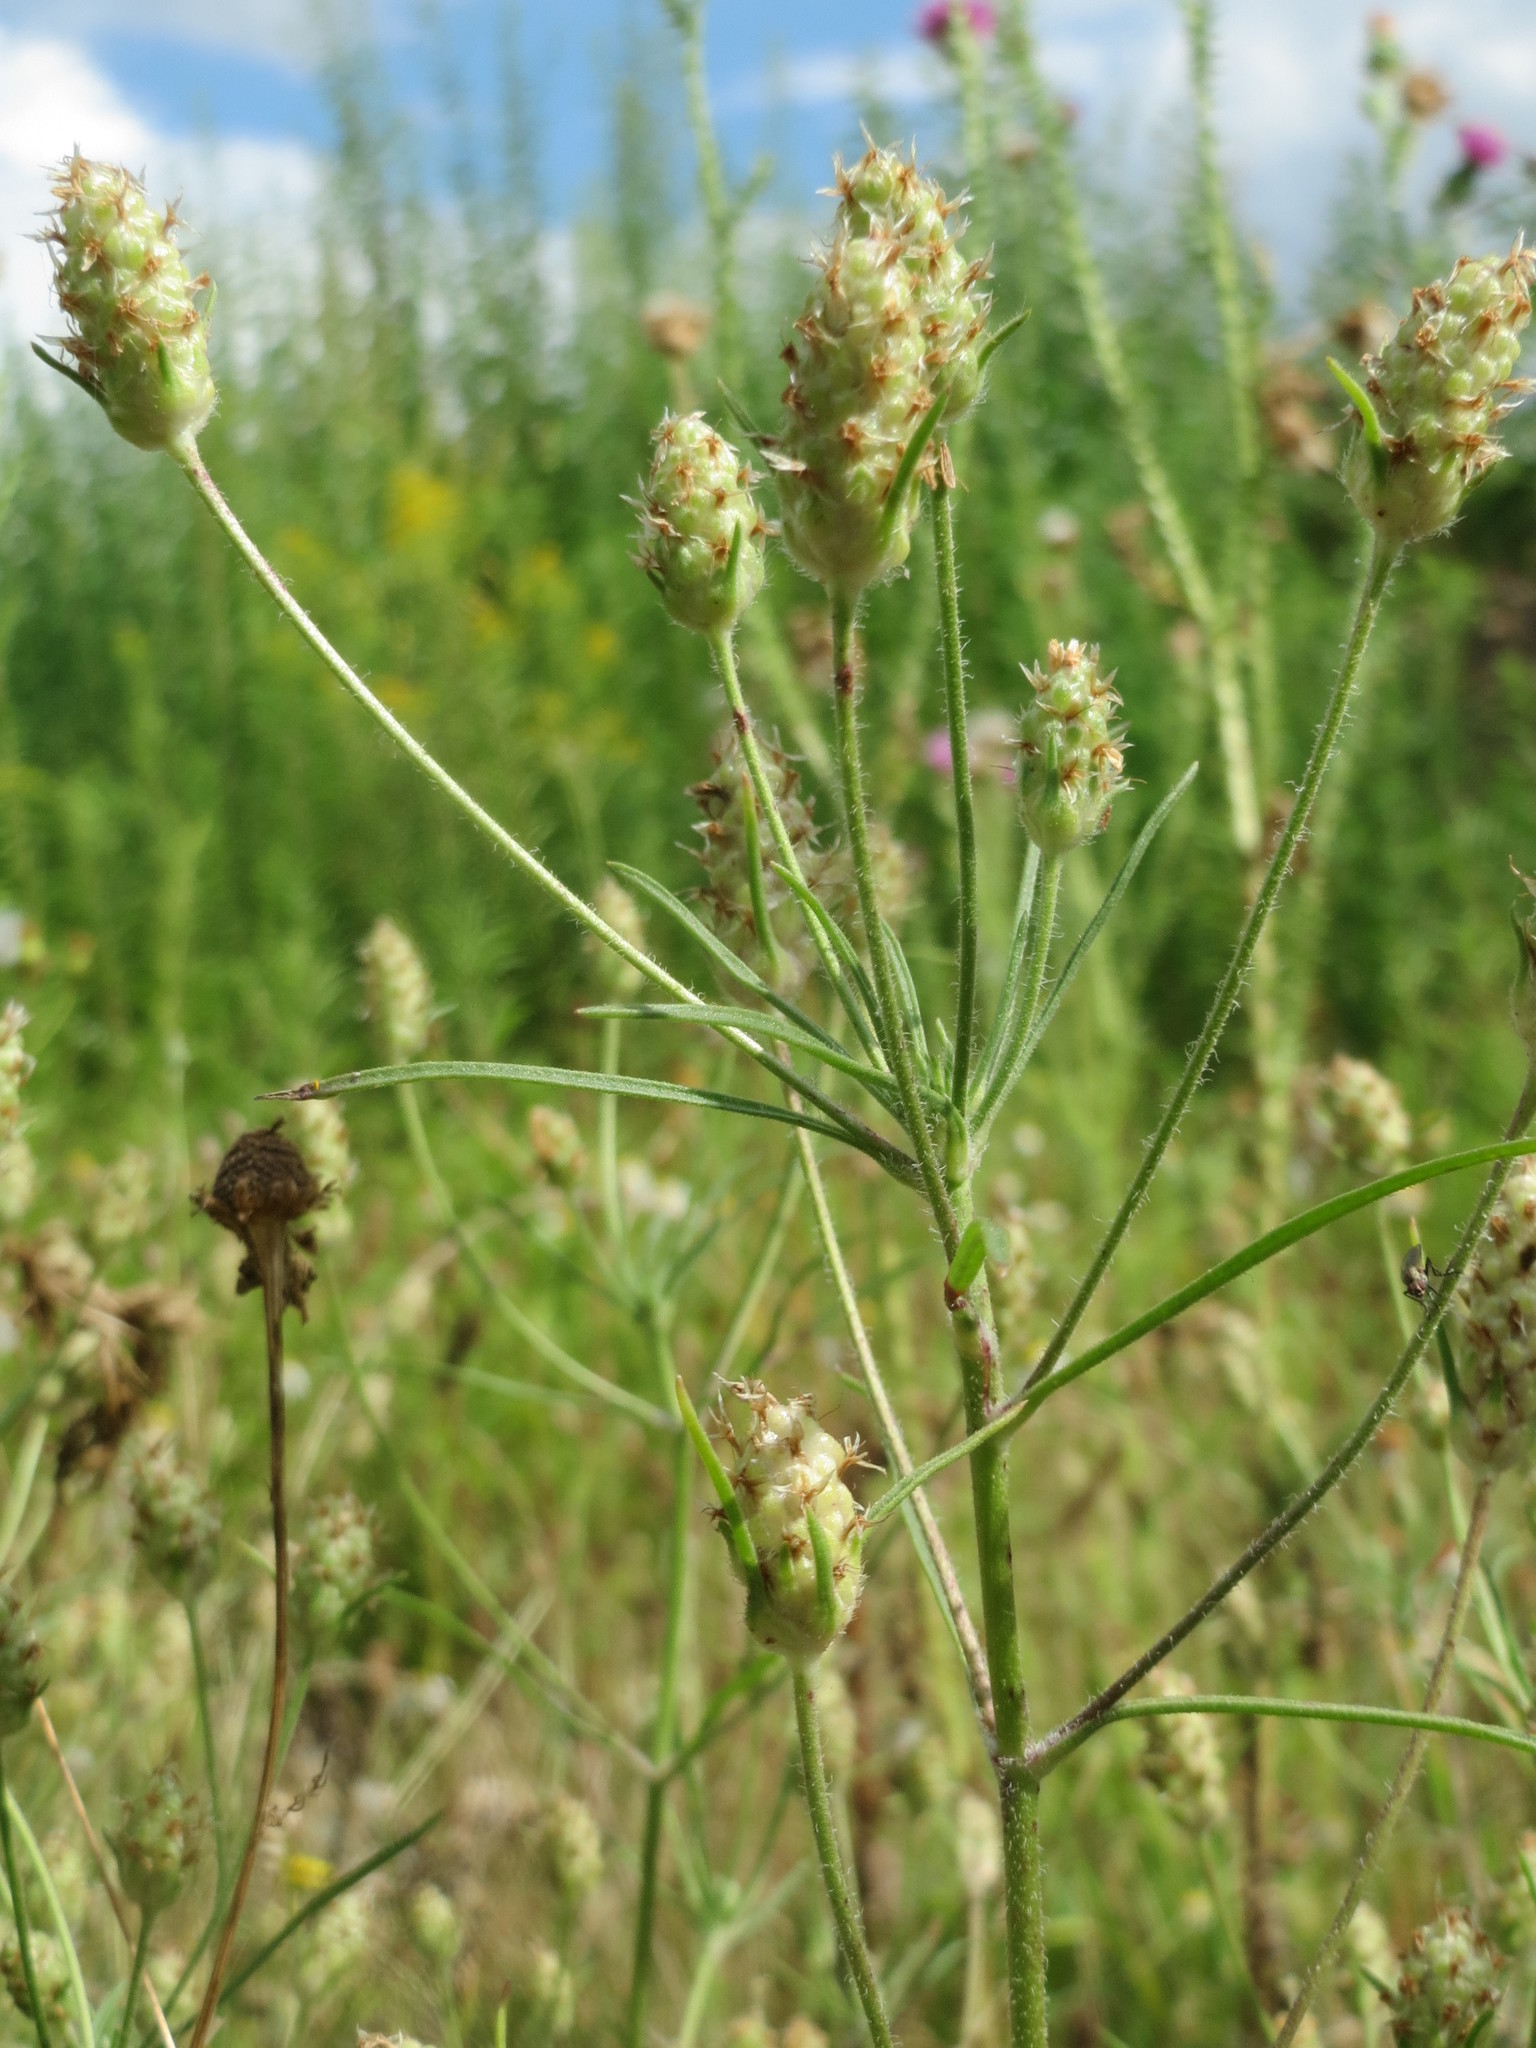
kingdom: Plantae
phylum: Tracheophyta
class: Magnoliopsida
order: Lamiales
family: Plantaginaceae
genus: Plantago
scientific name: Plantago arenaria
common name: Branched plantain
